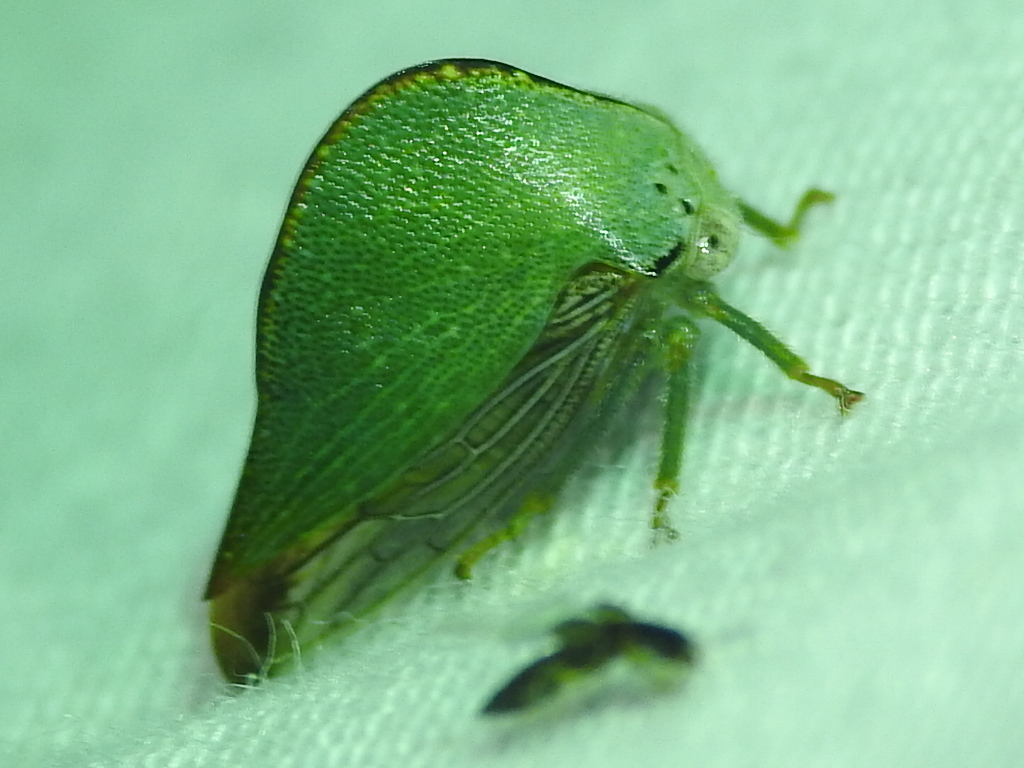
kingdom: Animalia
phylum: Arthropoda
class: Insecta
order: Hemiptera
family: Membracidae
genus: Archasia
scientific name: Archasia pallida
